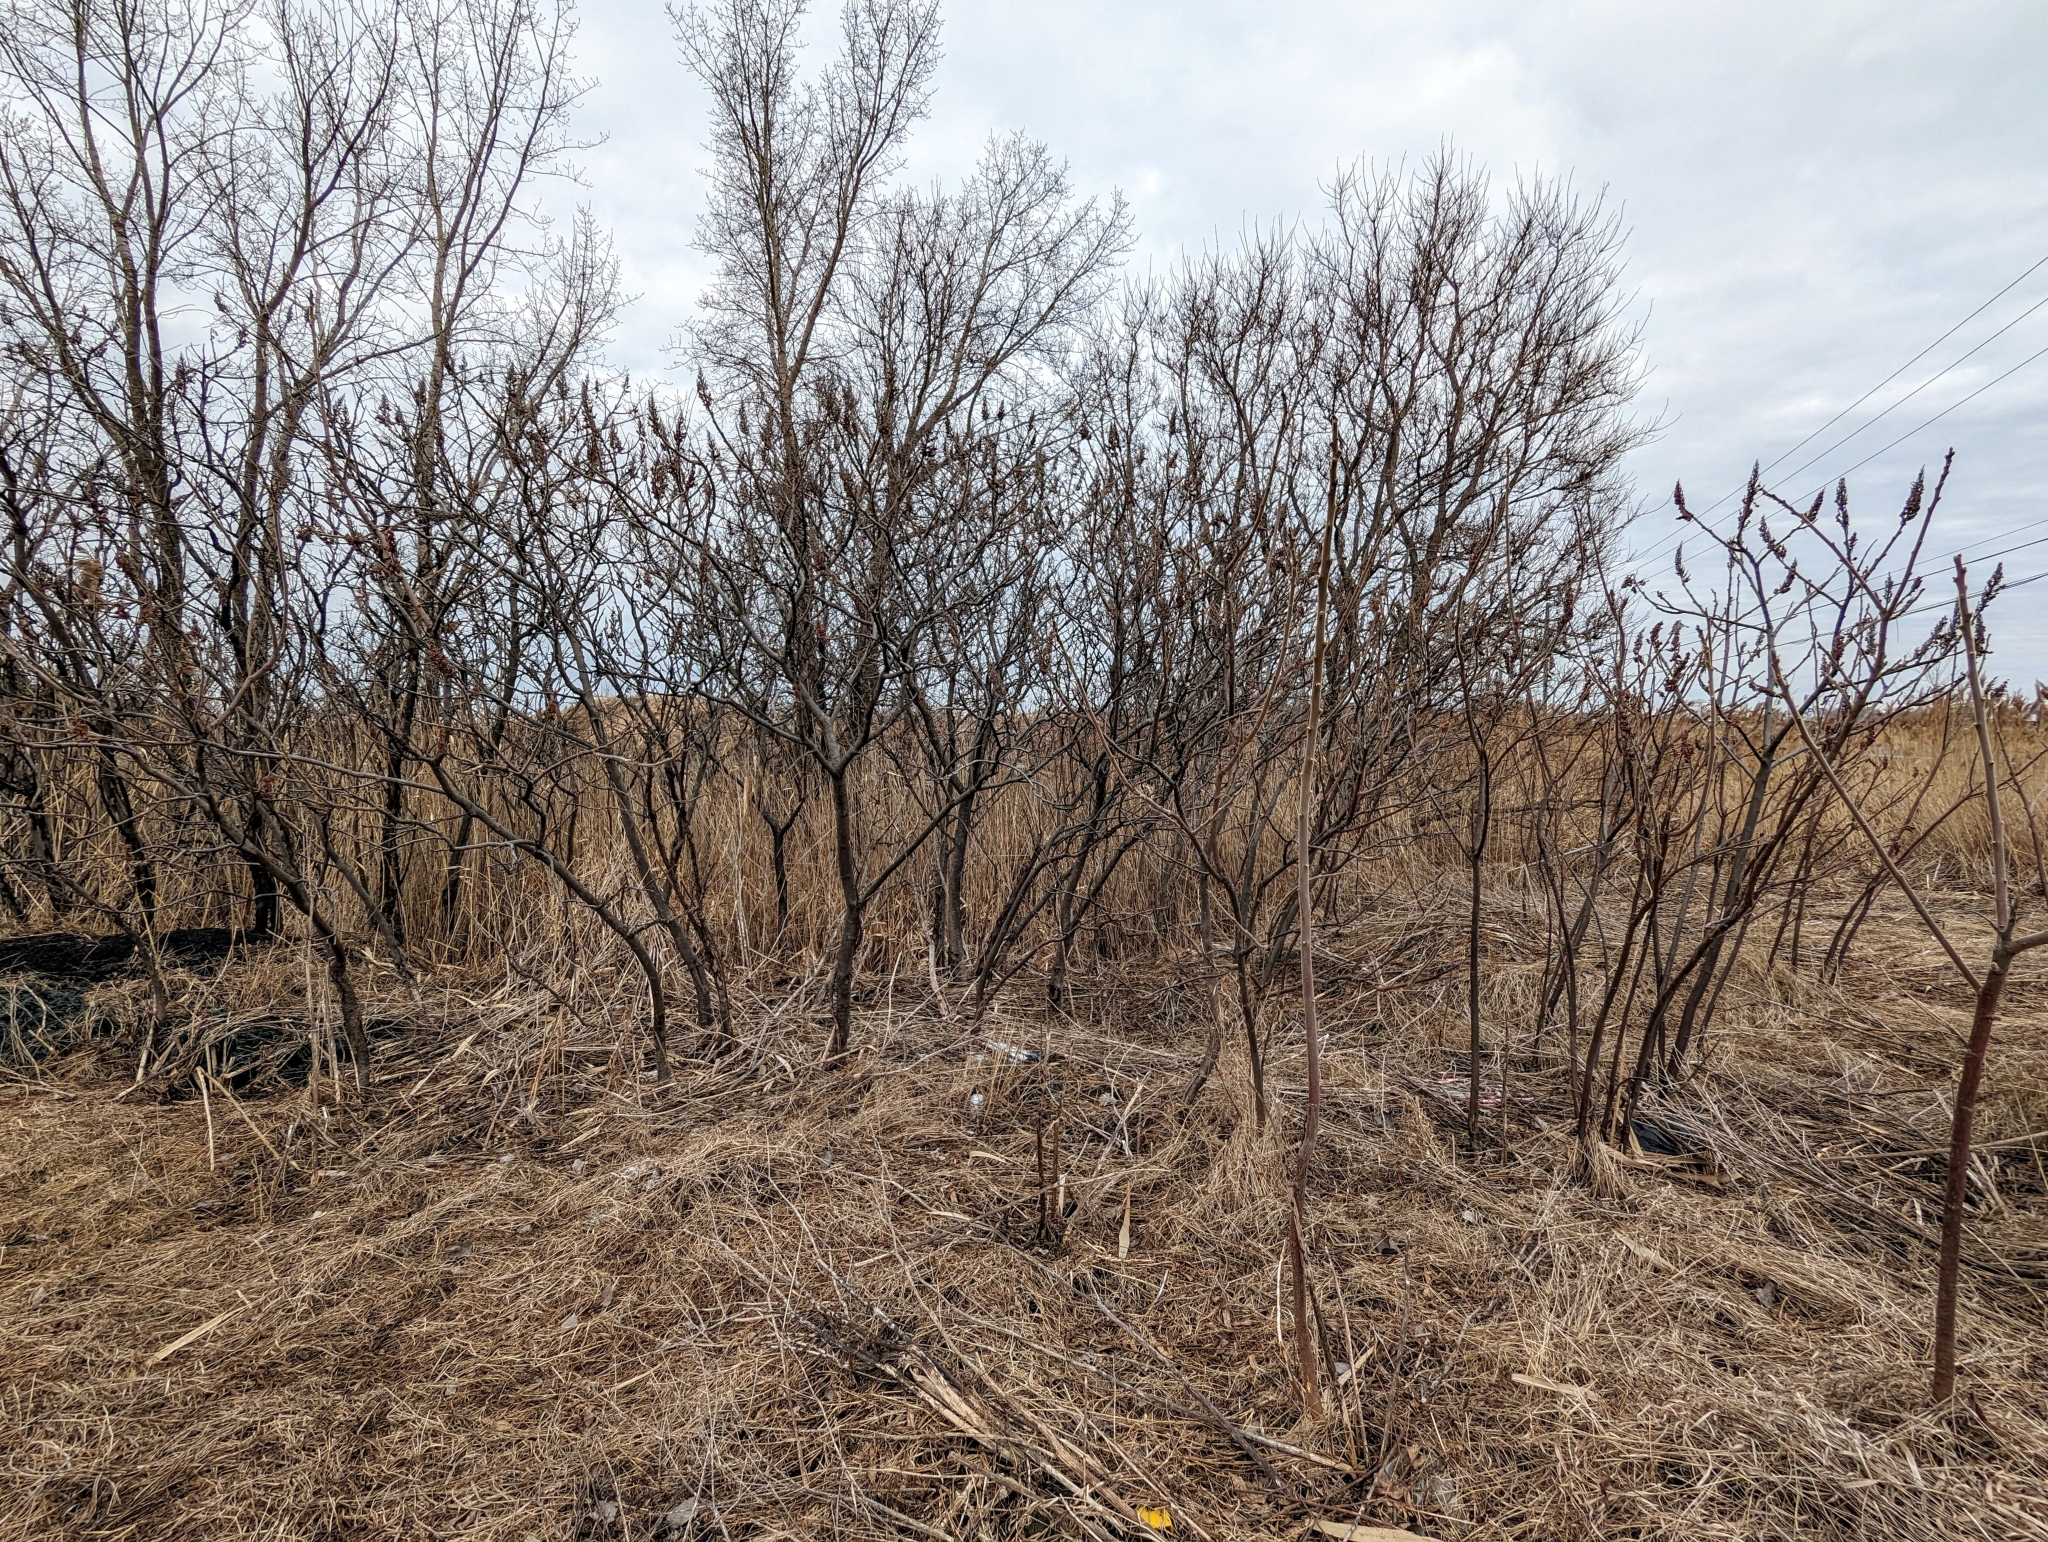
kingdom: Plantae
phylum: Tracheophyta
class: Magnoliopsida
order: Sapindales
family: Anacardiaceae
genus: Rhus
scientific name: Rhus typhina
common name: Staghorn sumac
